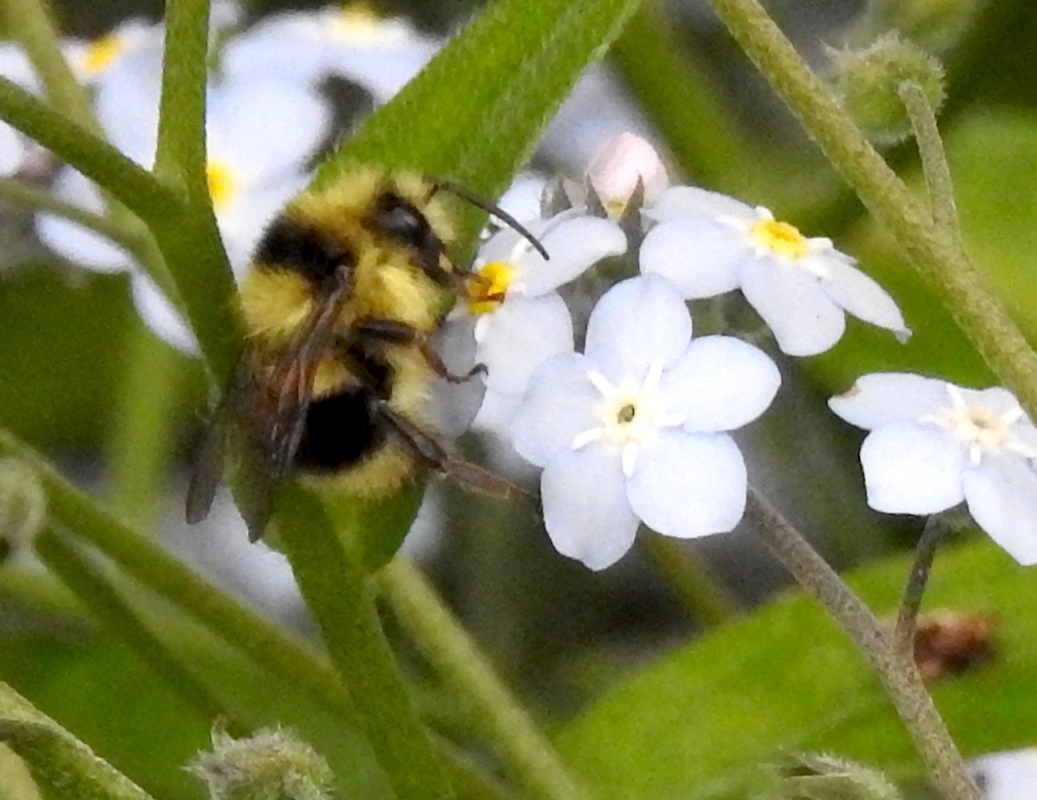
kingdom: Animalia
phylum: Arthropoda
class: Insecta
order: Hymenoptera
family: Apidae
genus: Bombus
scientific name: Bombus melanopygus
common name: Black tail bumble bee
